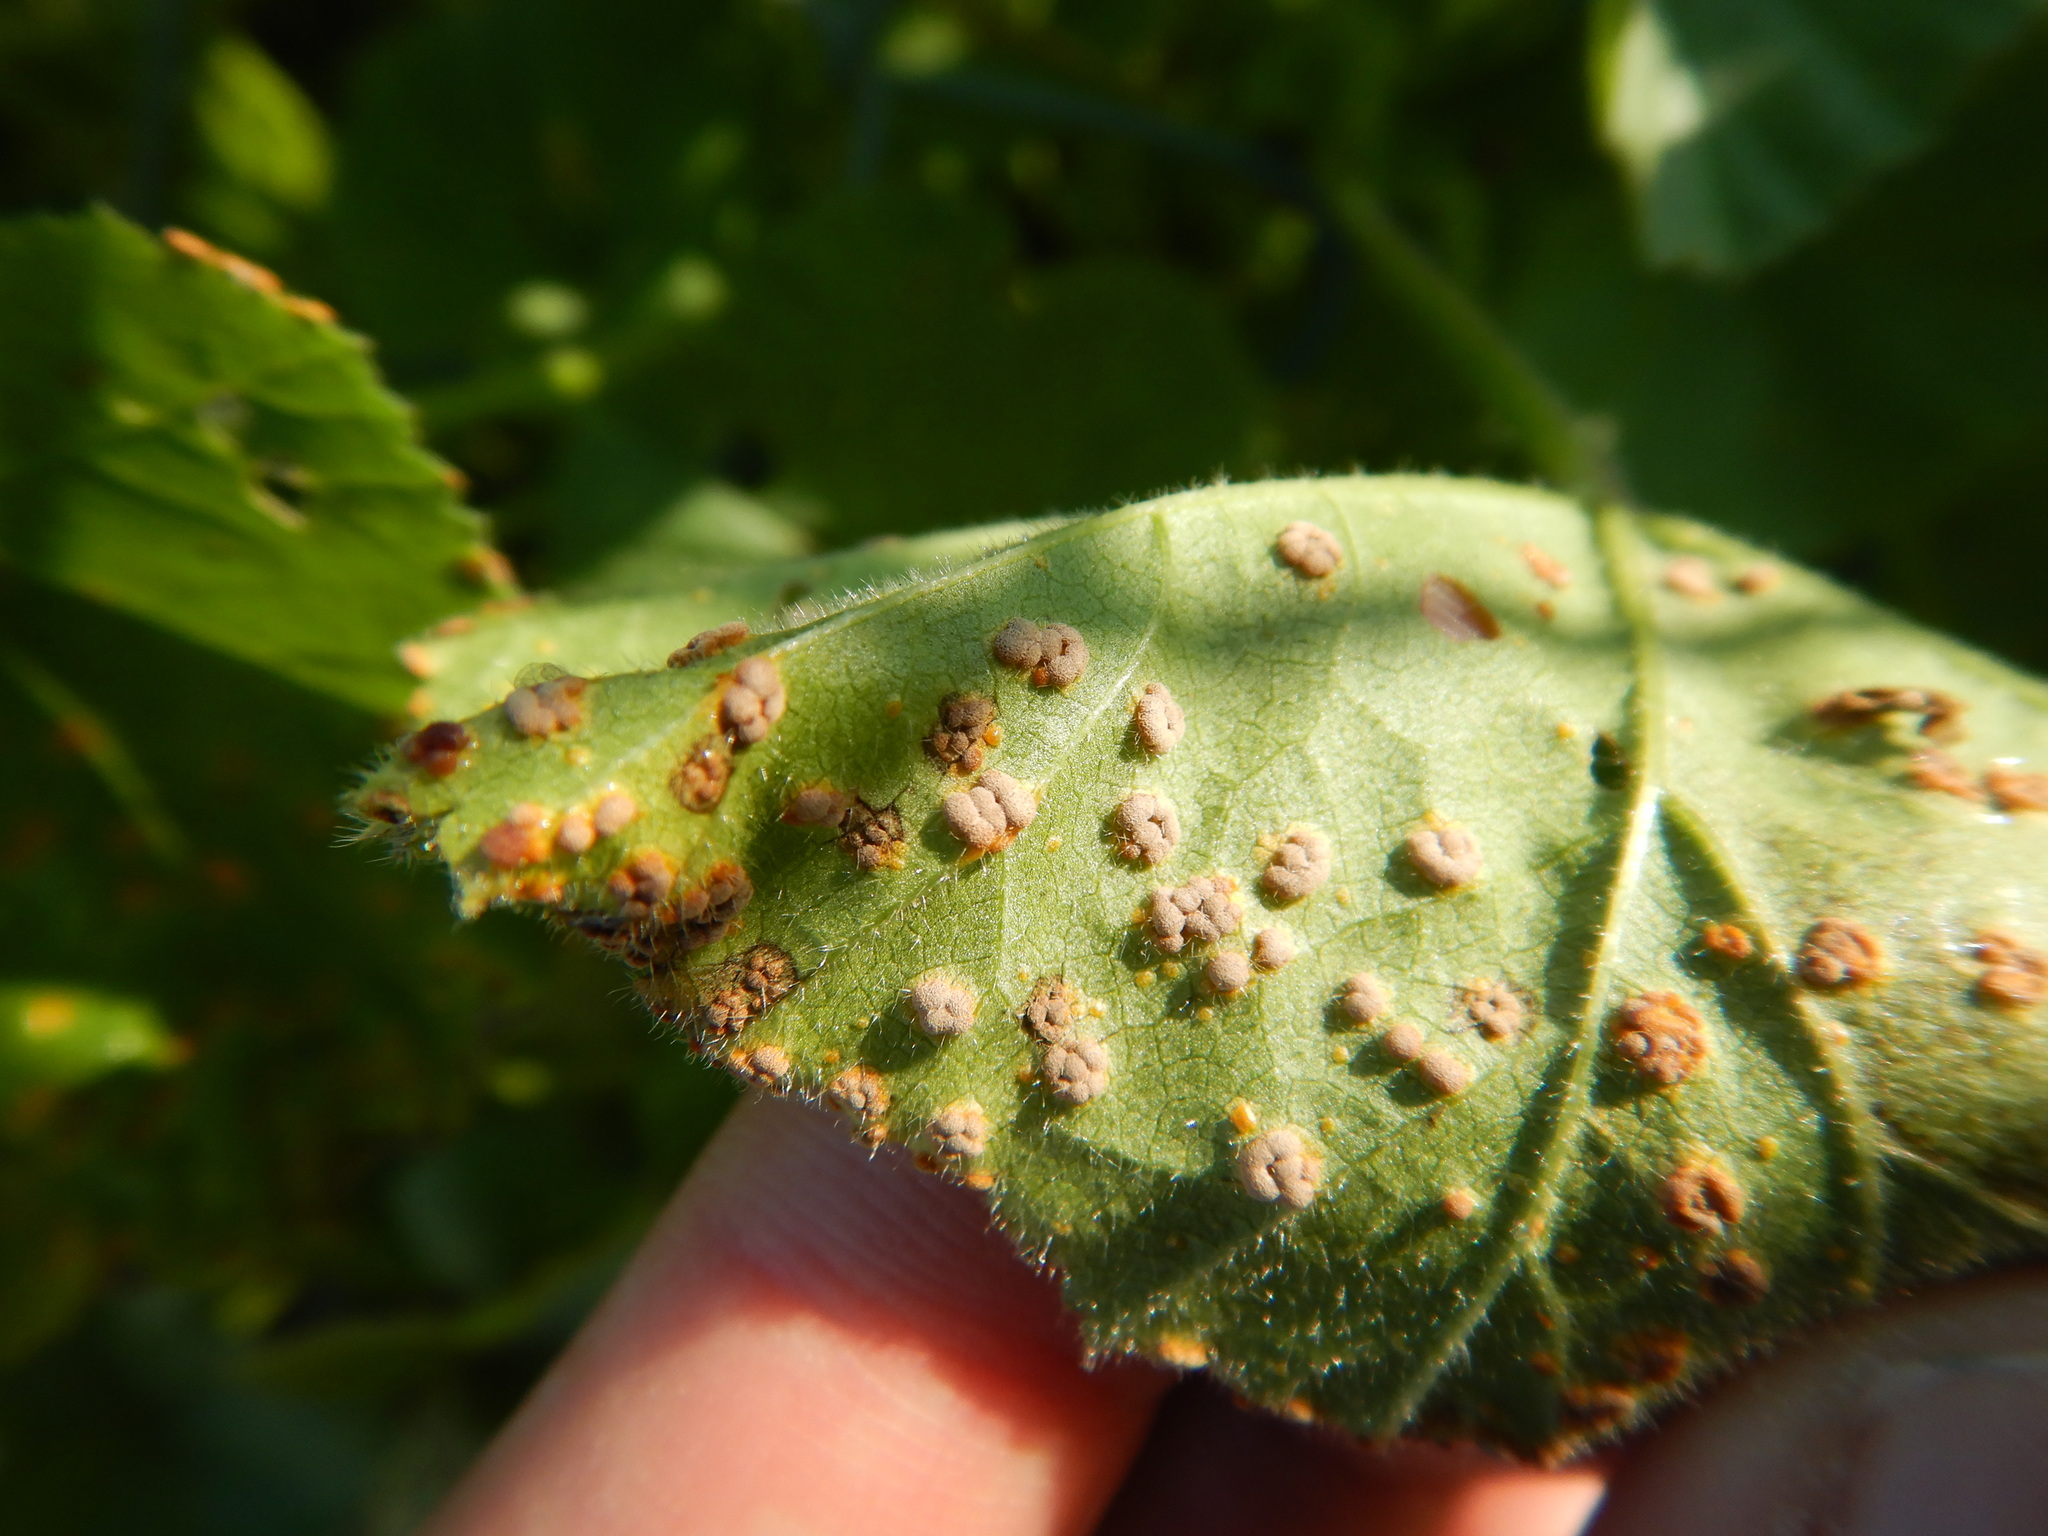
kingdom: Fungi
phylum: Basidiomycota
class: Pucciniomycetes
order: Pucciniales
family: Pucciniaceae
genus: Puccinia
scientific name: Puccinia malvacearum
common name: Hollyhock rust
